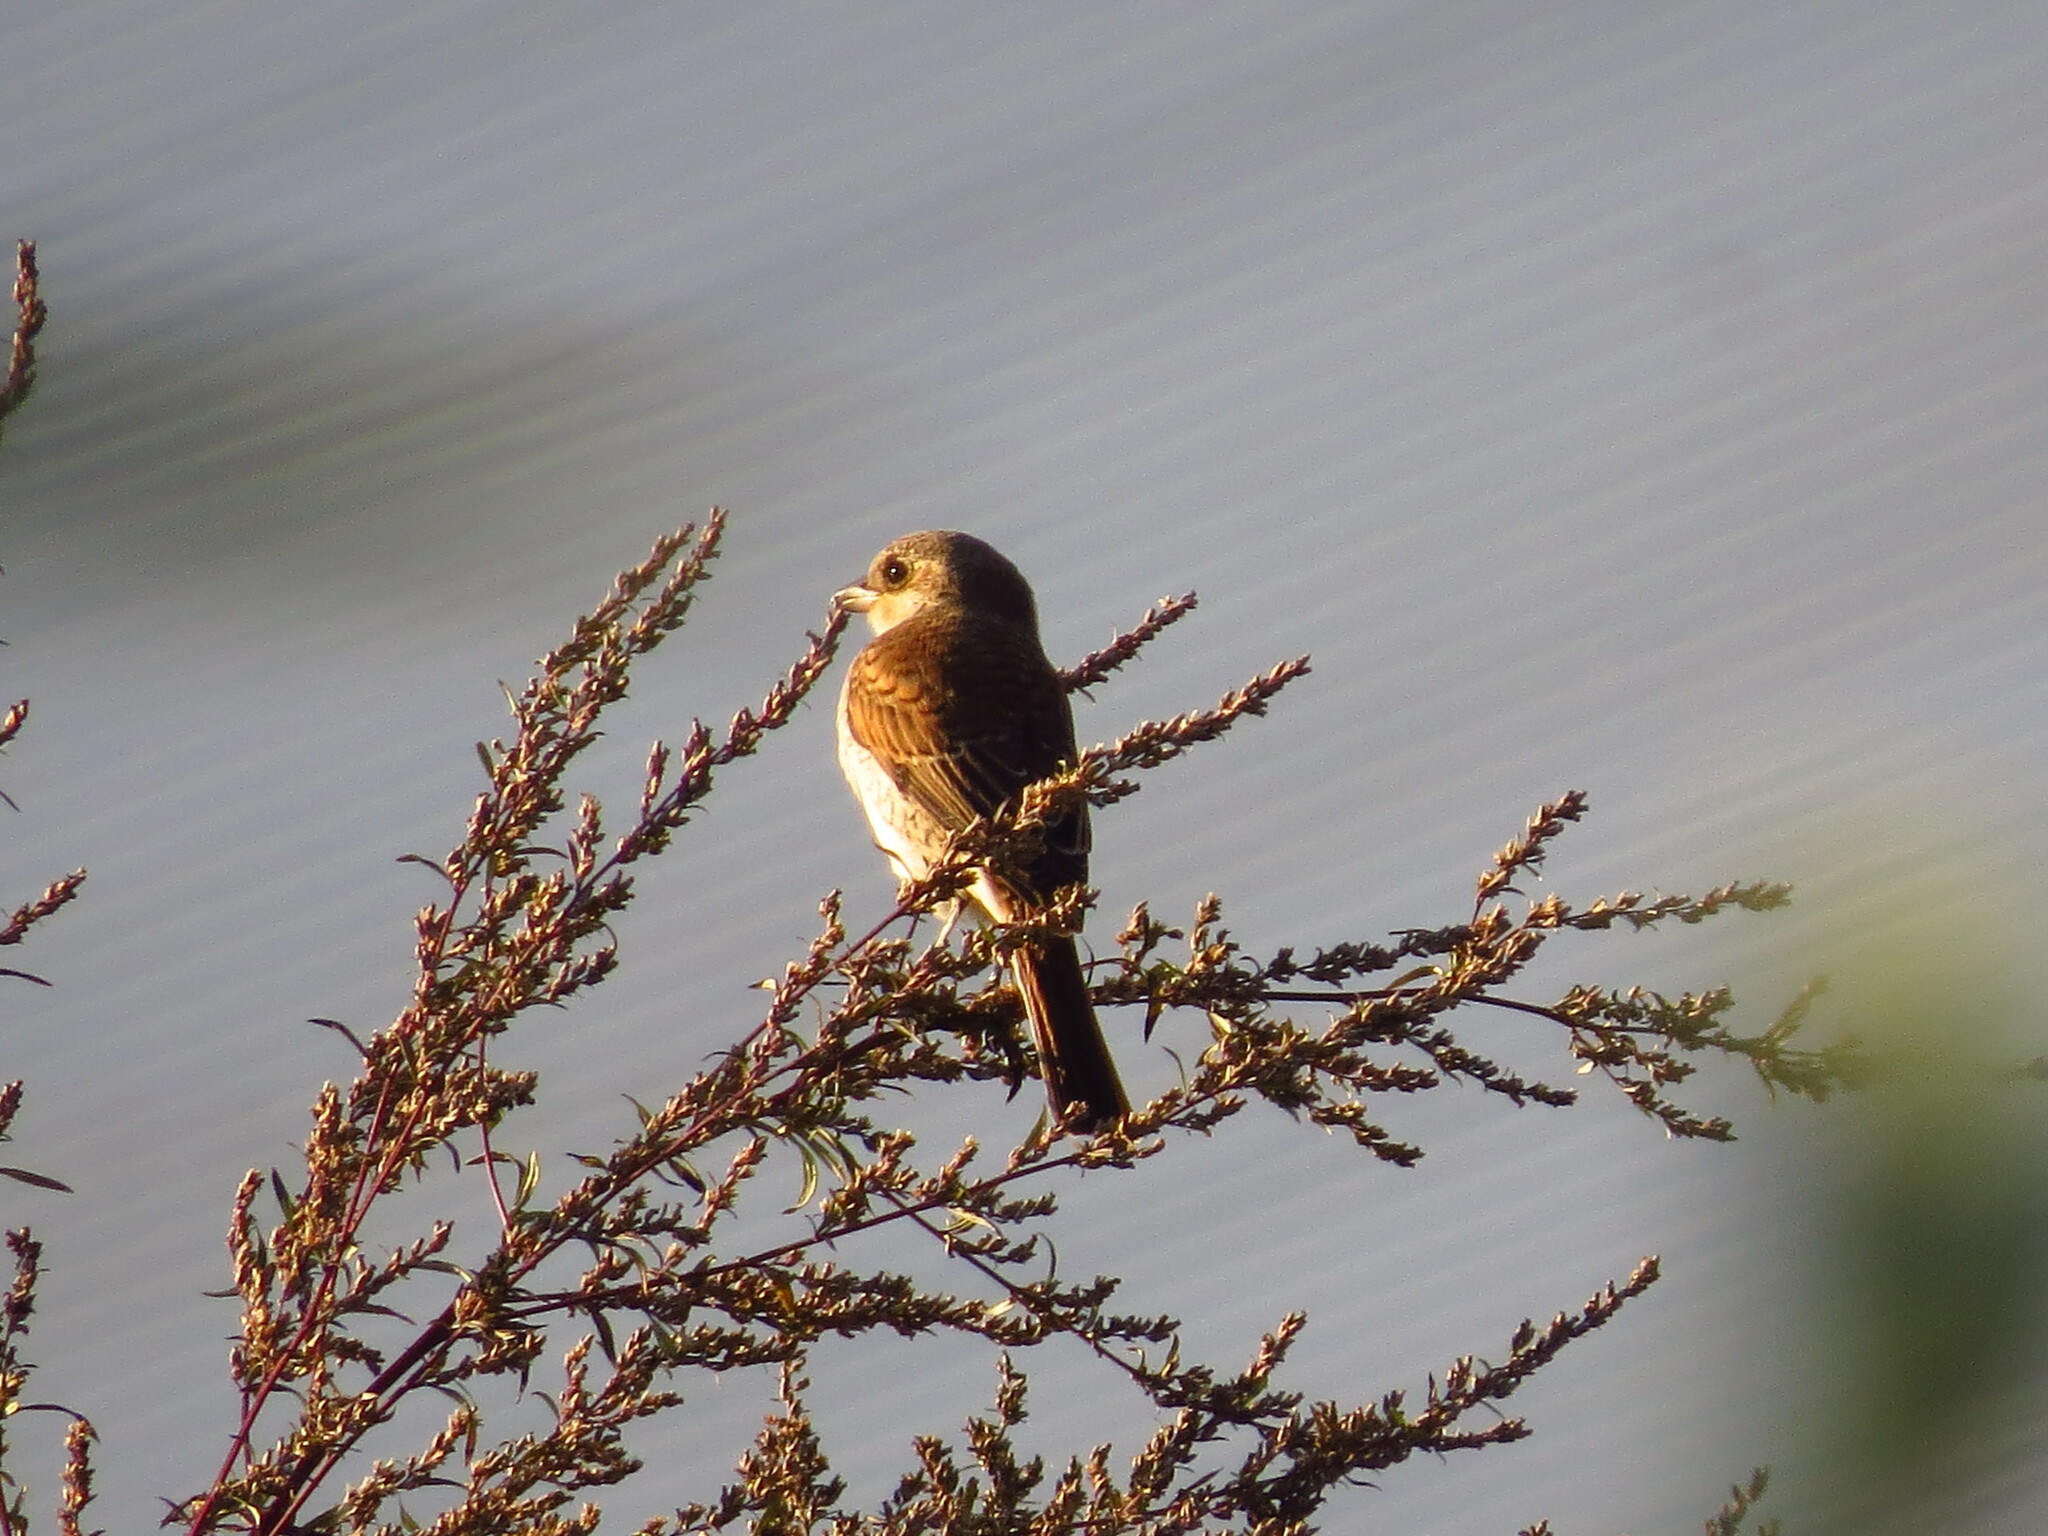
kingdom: Animalia
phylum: Chordata
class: Aves
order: Passeriformes
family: Laniidae
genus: Lanius
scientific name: Lanius collurio
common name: Red-backed shrike
